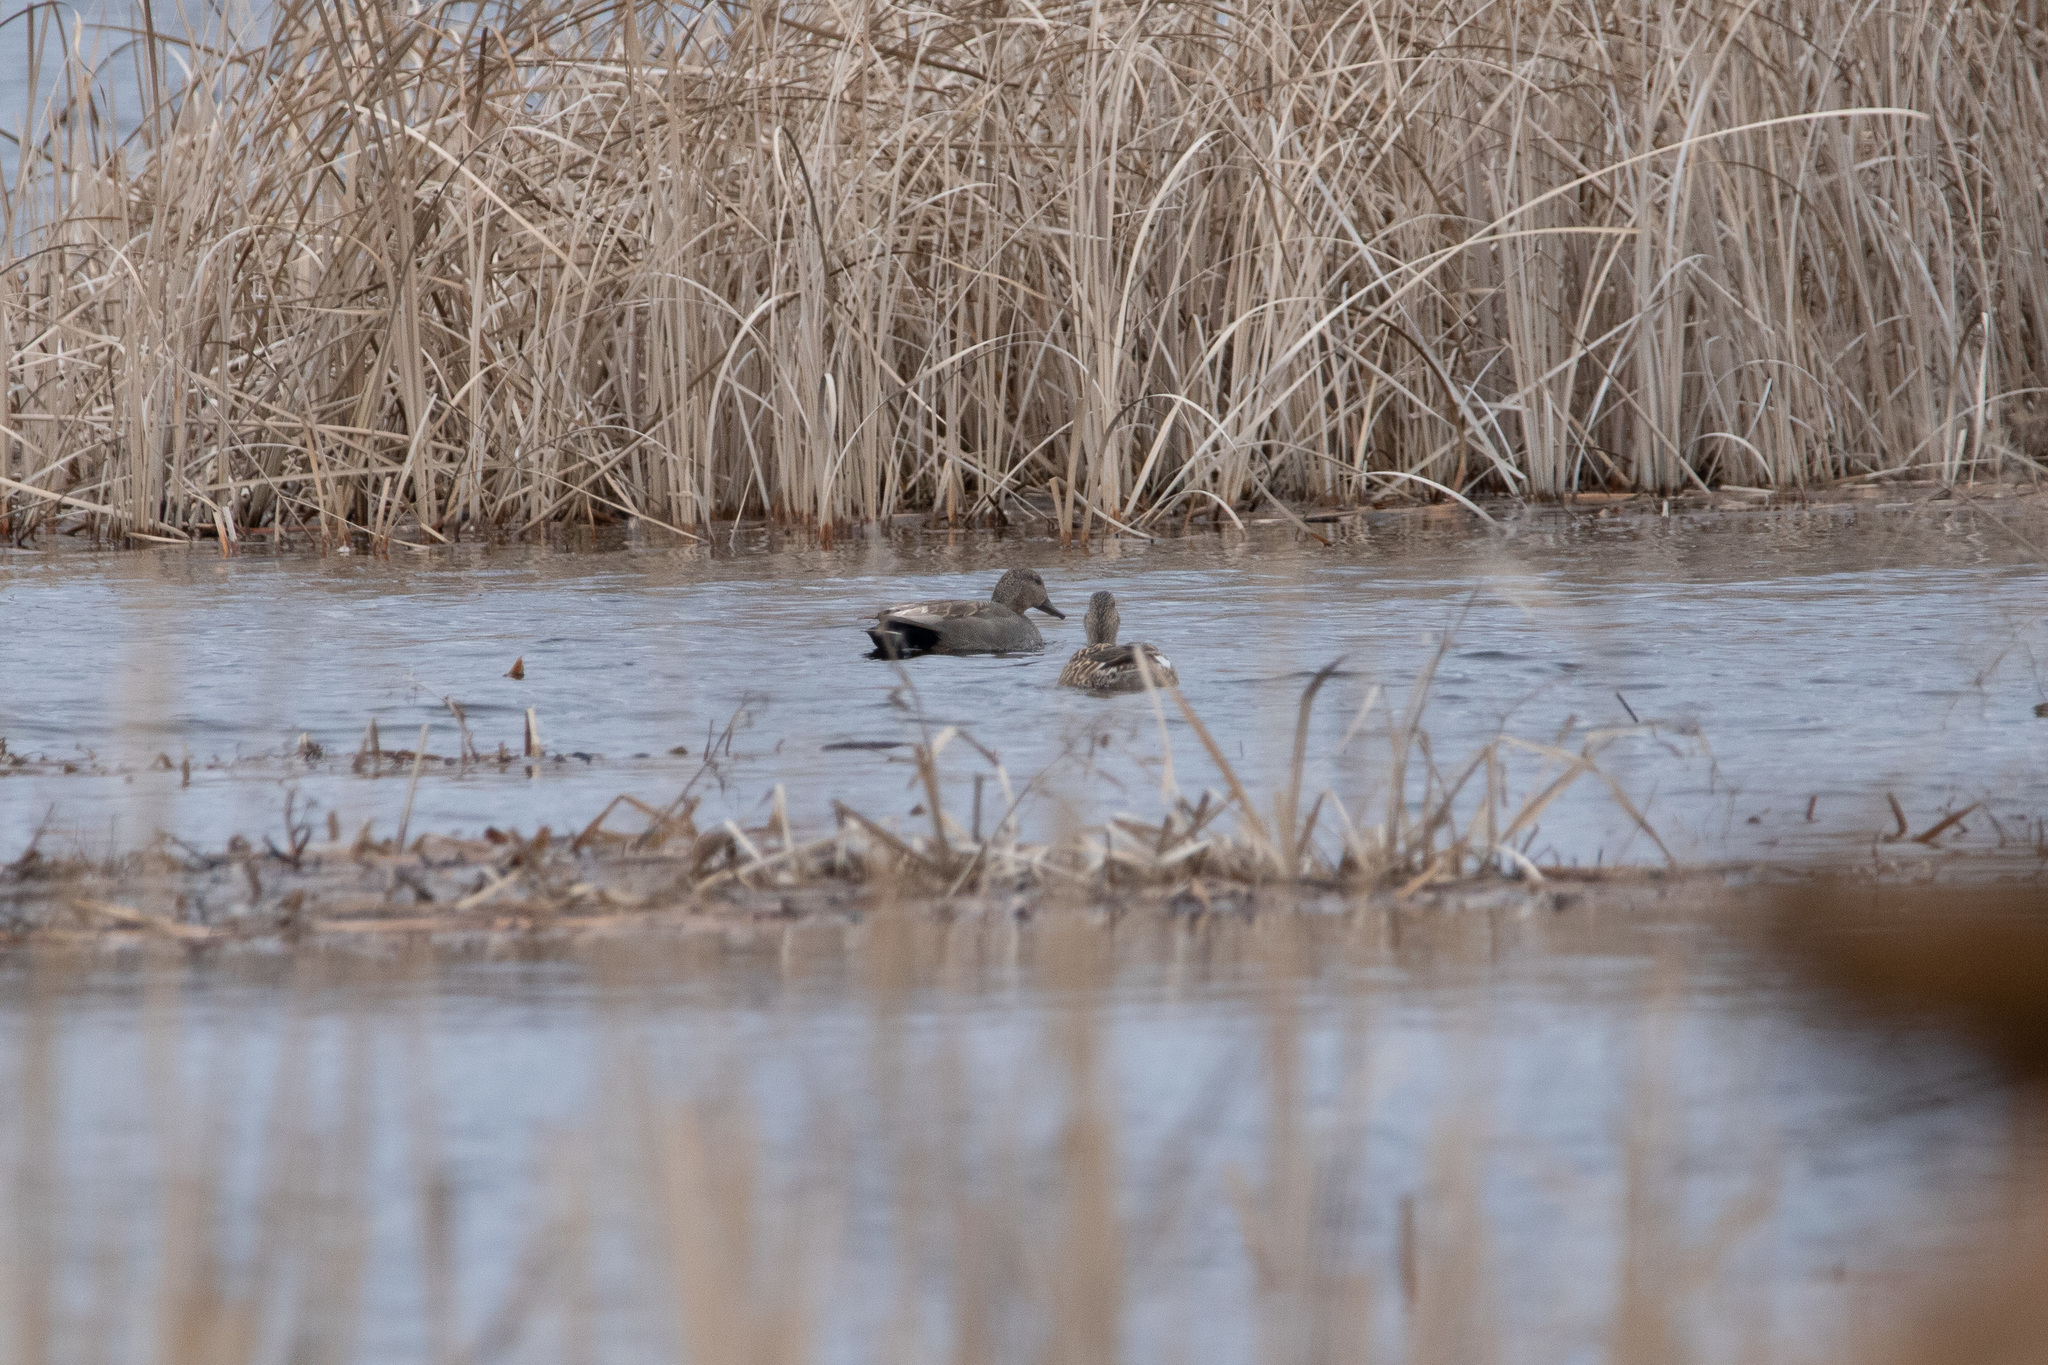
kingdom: Animalia
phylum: Chordata
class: Aves
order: Anseriformes
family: Anatidae
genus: Mareca
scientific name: Mareca strepera
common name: Gadwall
